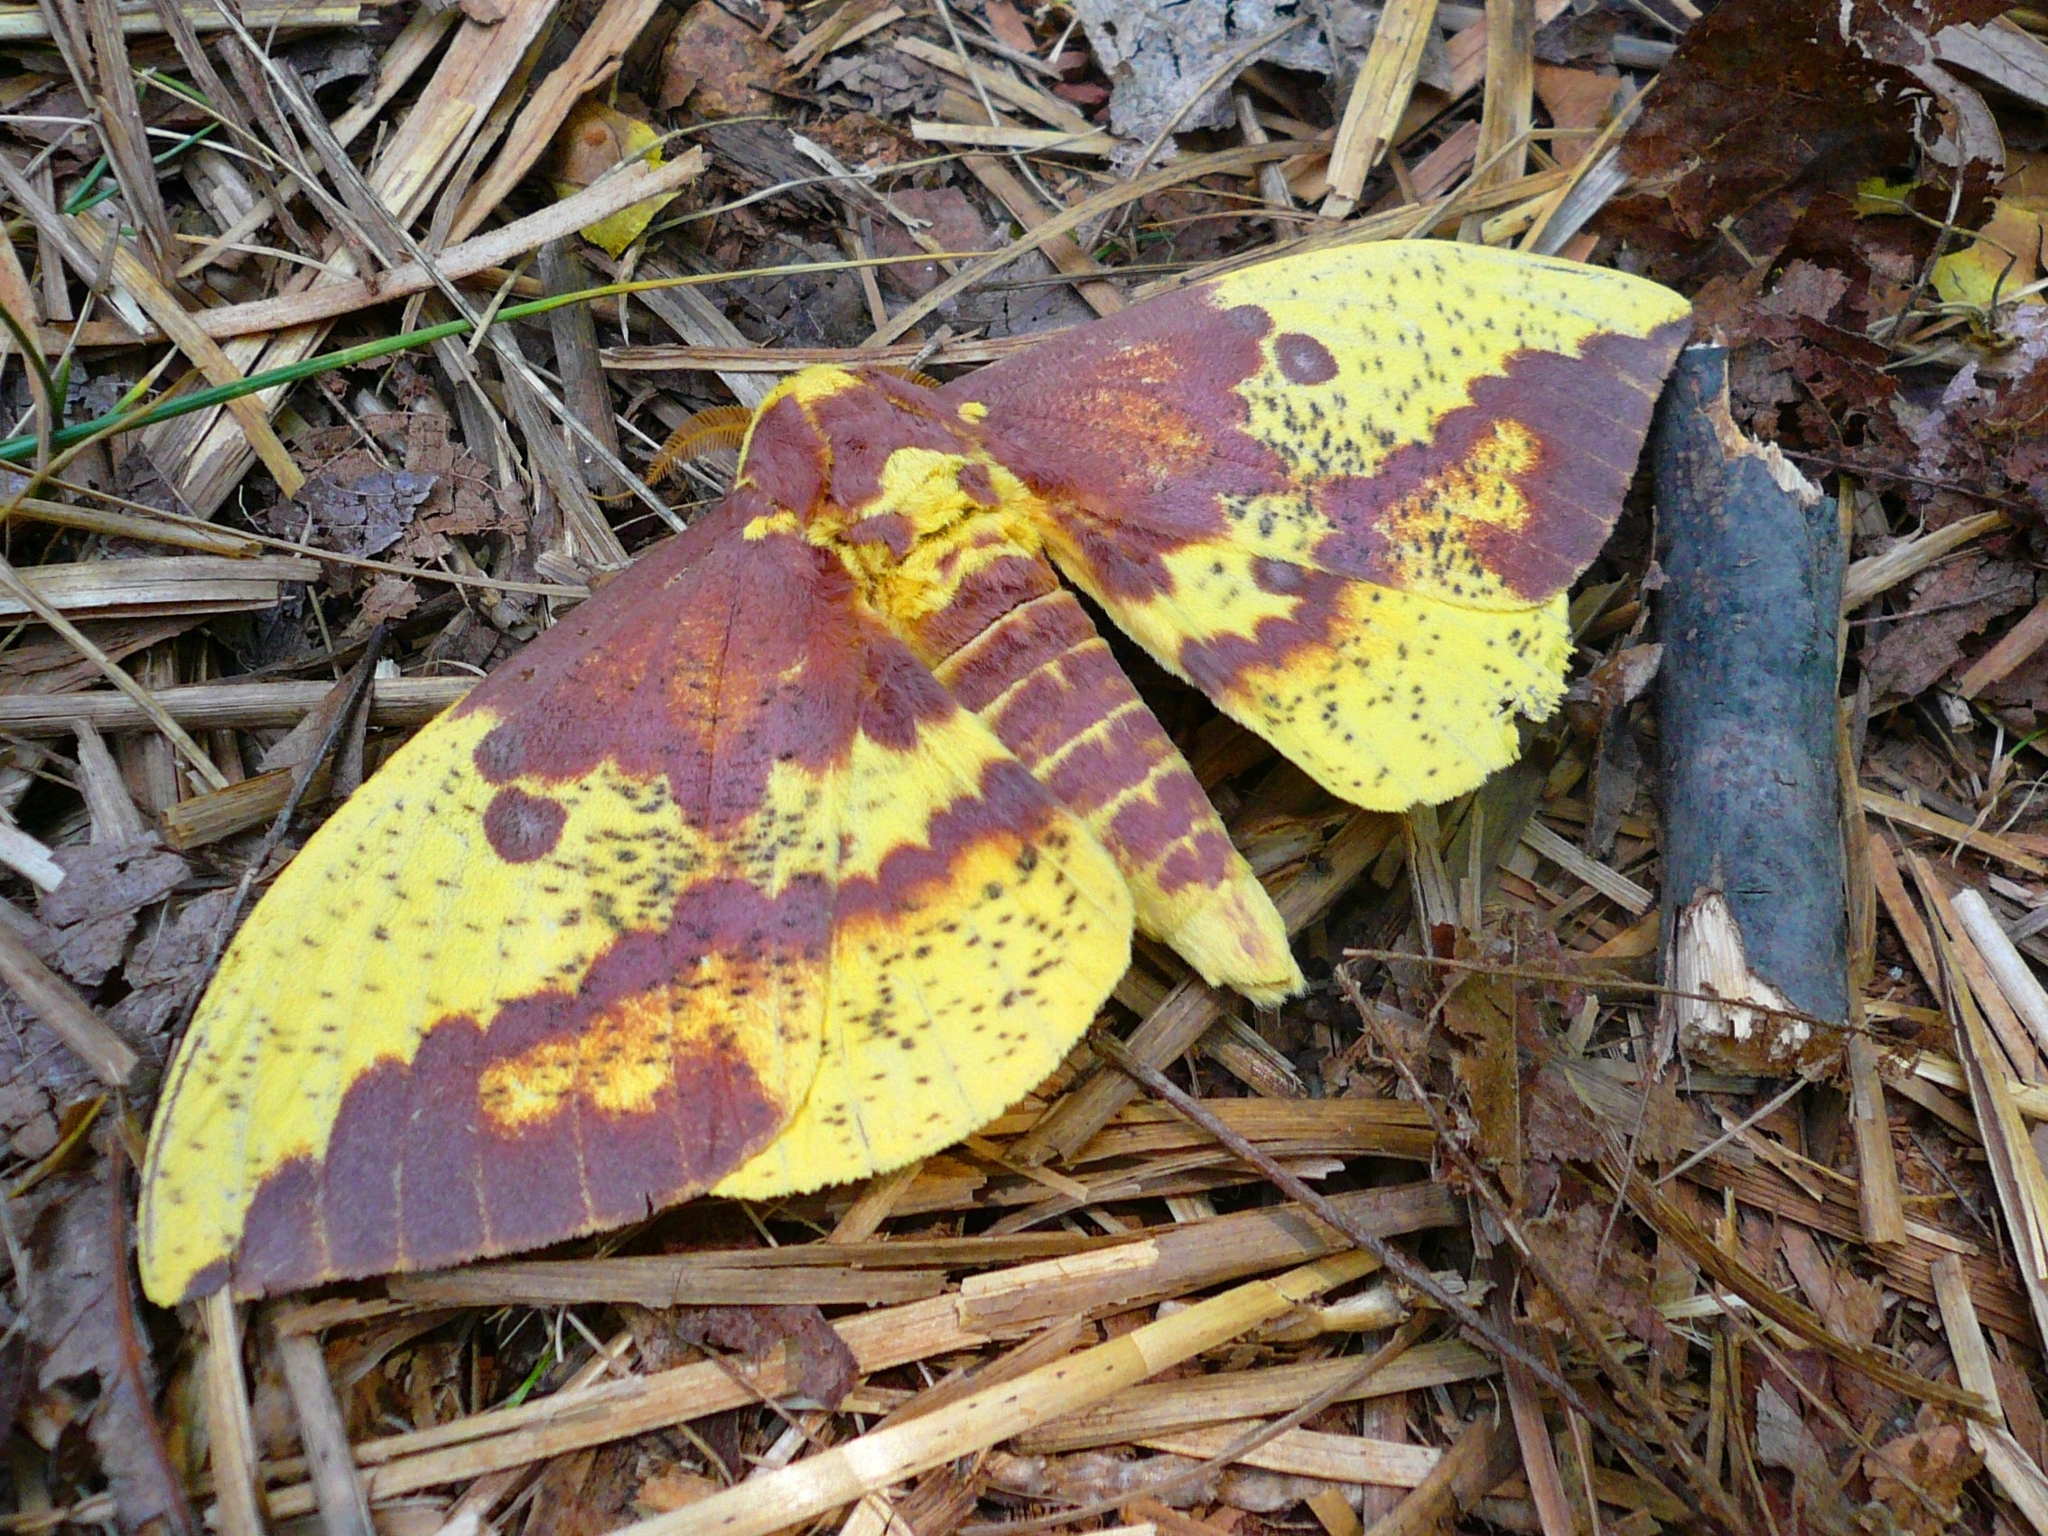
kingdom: Animalia
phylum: Arthropoda
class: Insecta
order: Lepidoptera
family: Saturniidae
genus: Eacles
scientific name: Eacles imperialis
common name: Imperial moth
